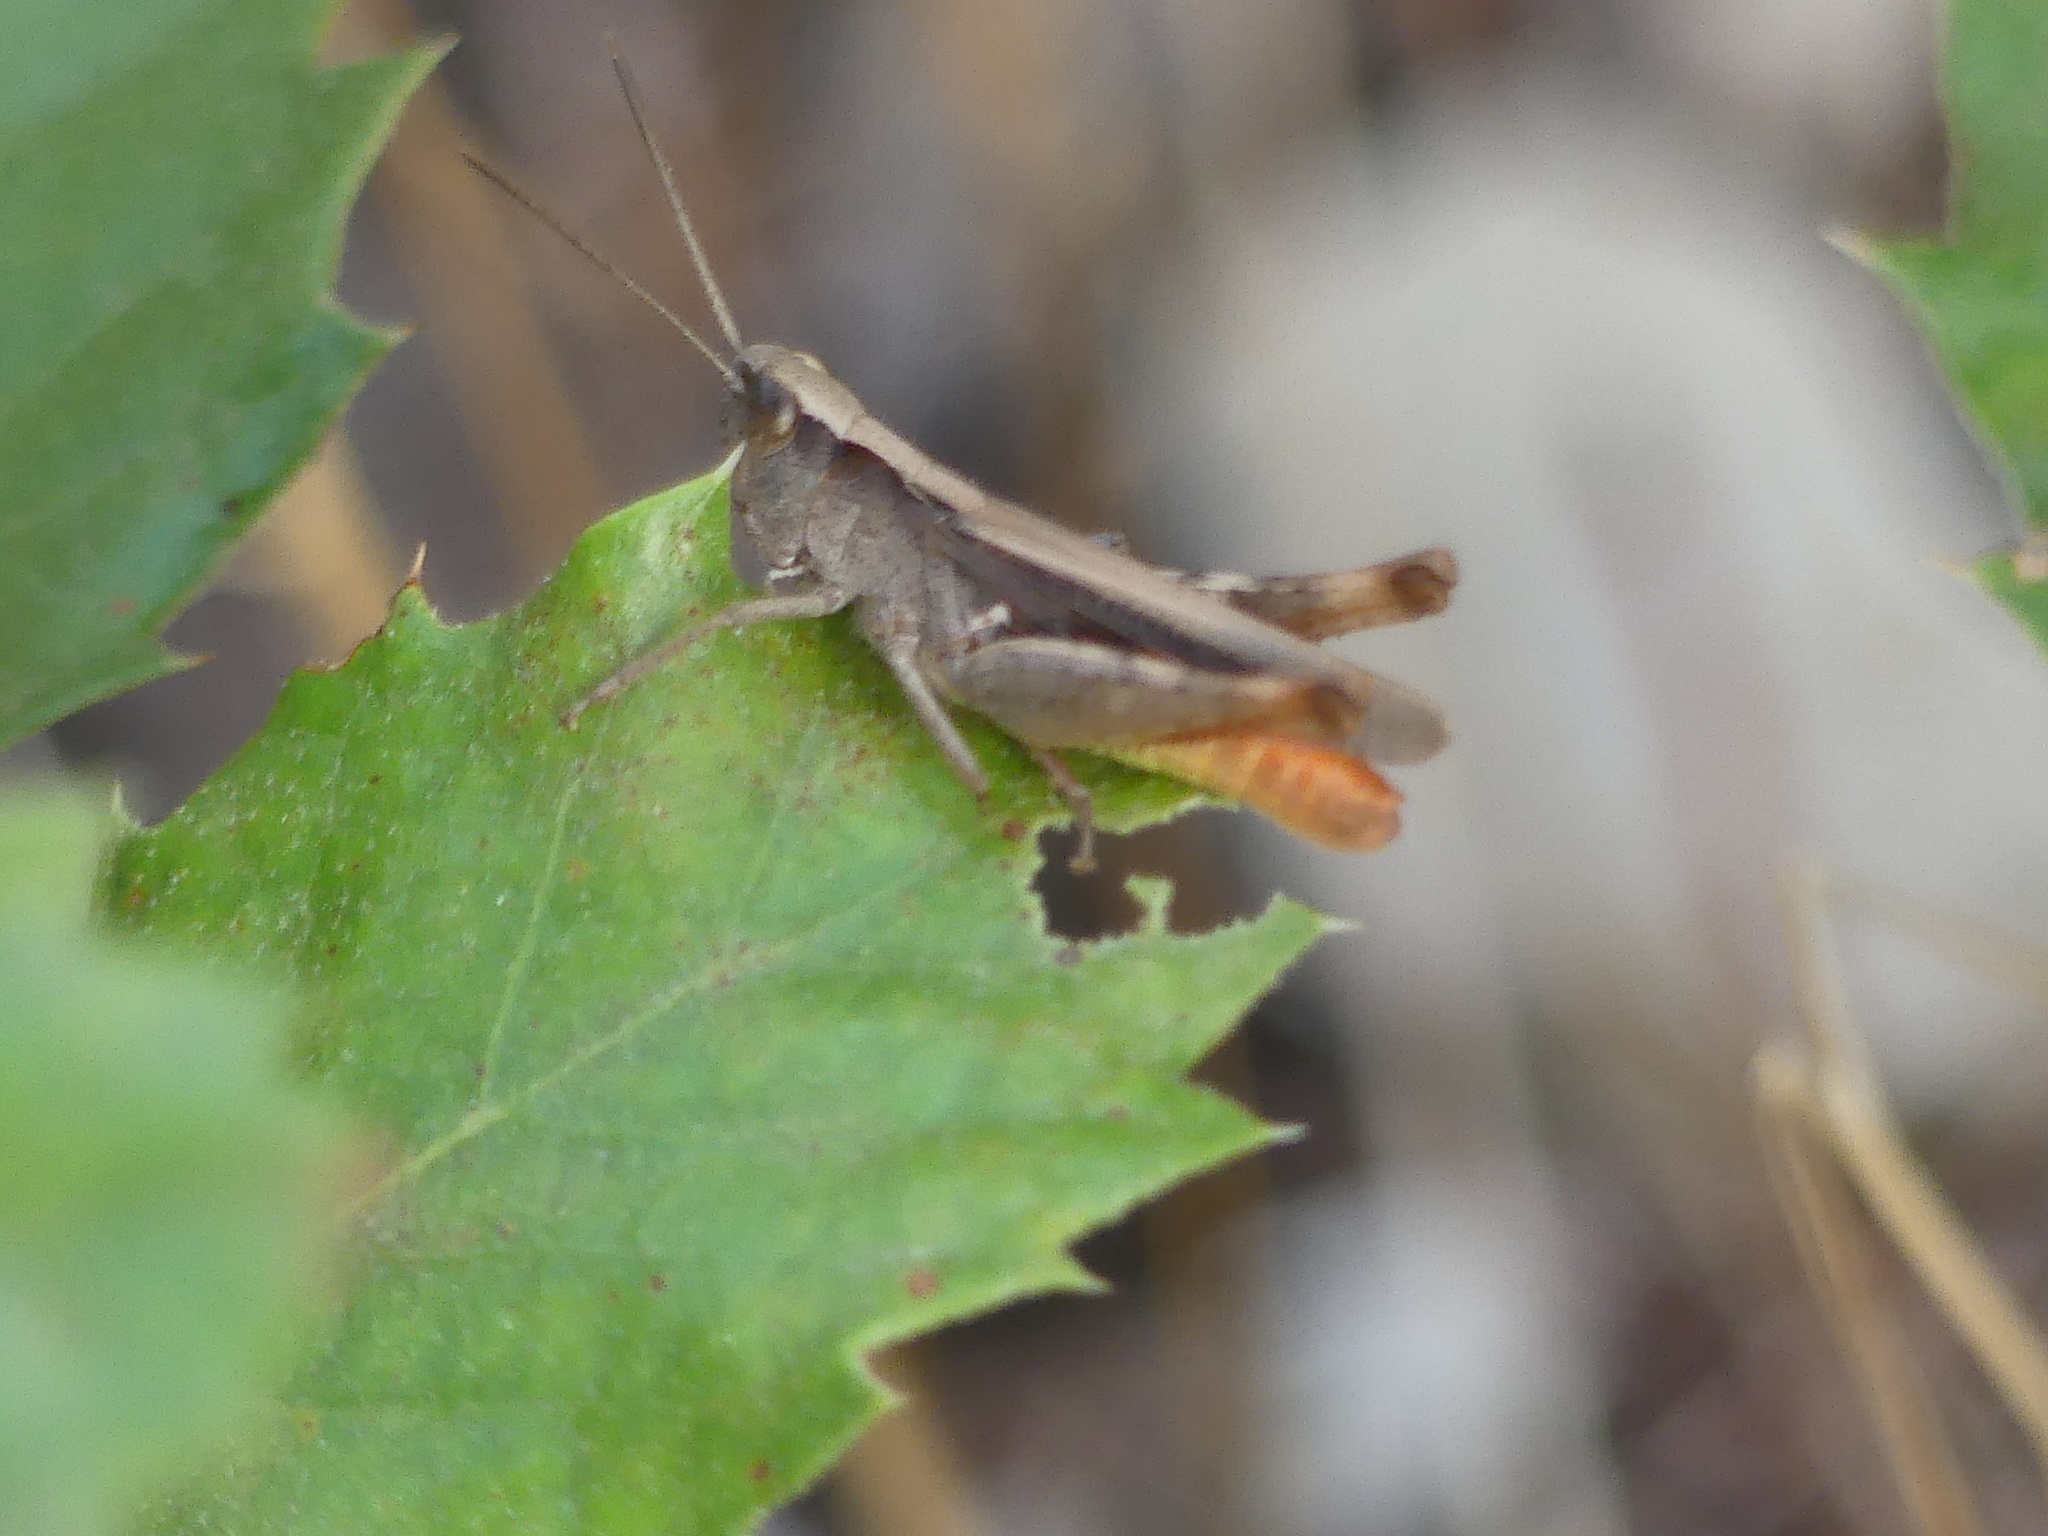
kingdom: Animalia
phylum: Arthropoda
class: Insecta
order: Orthoptera
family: Acrididae
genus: Chorthippus
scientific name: Chorthippus vagans
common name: Heath grasshopper
